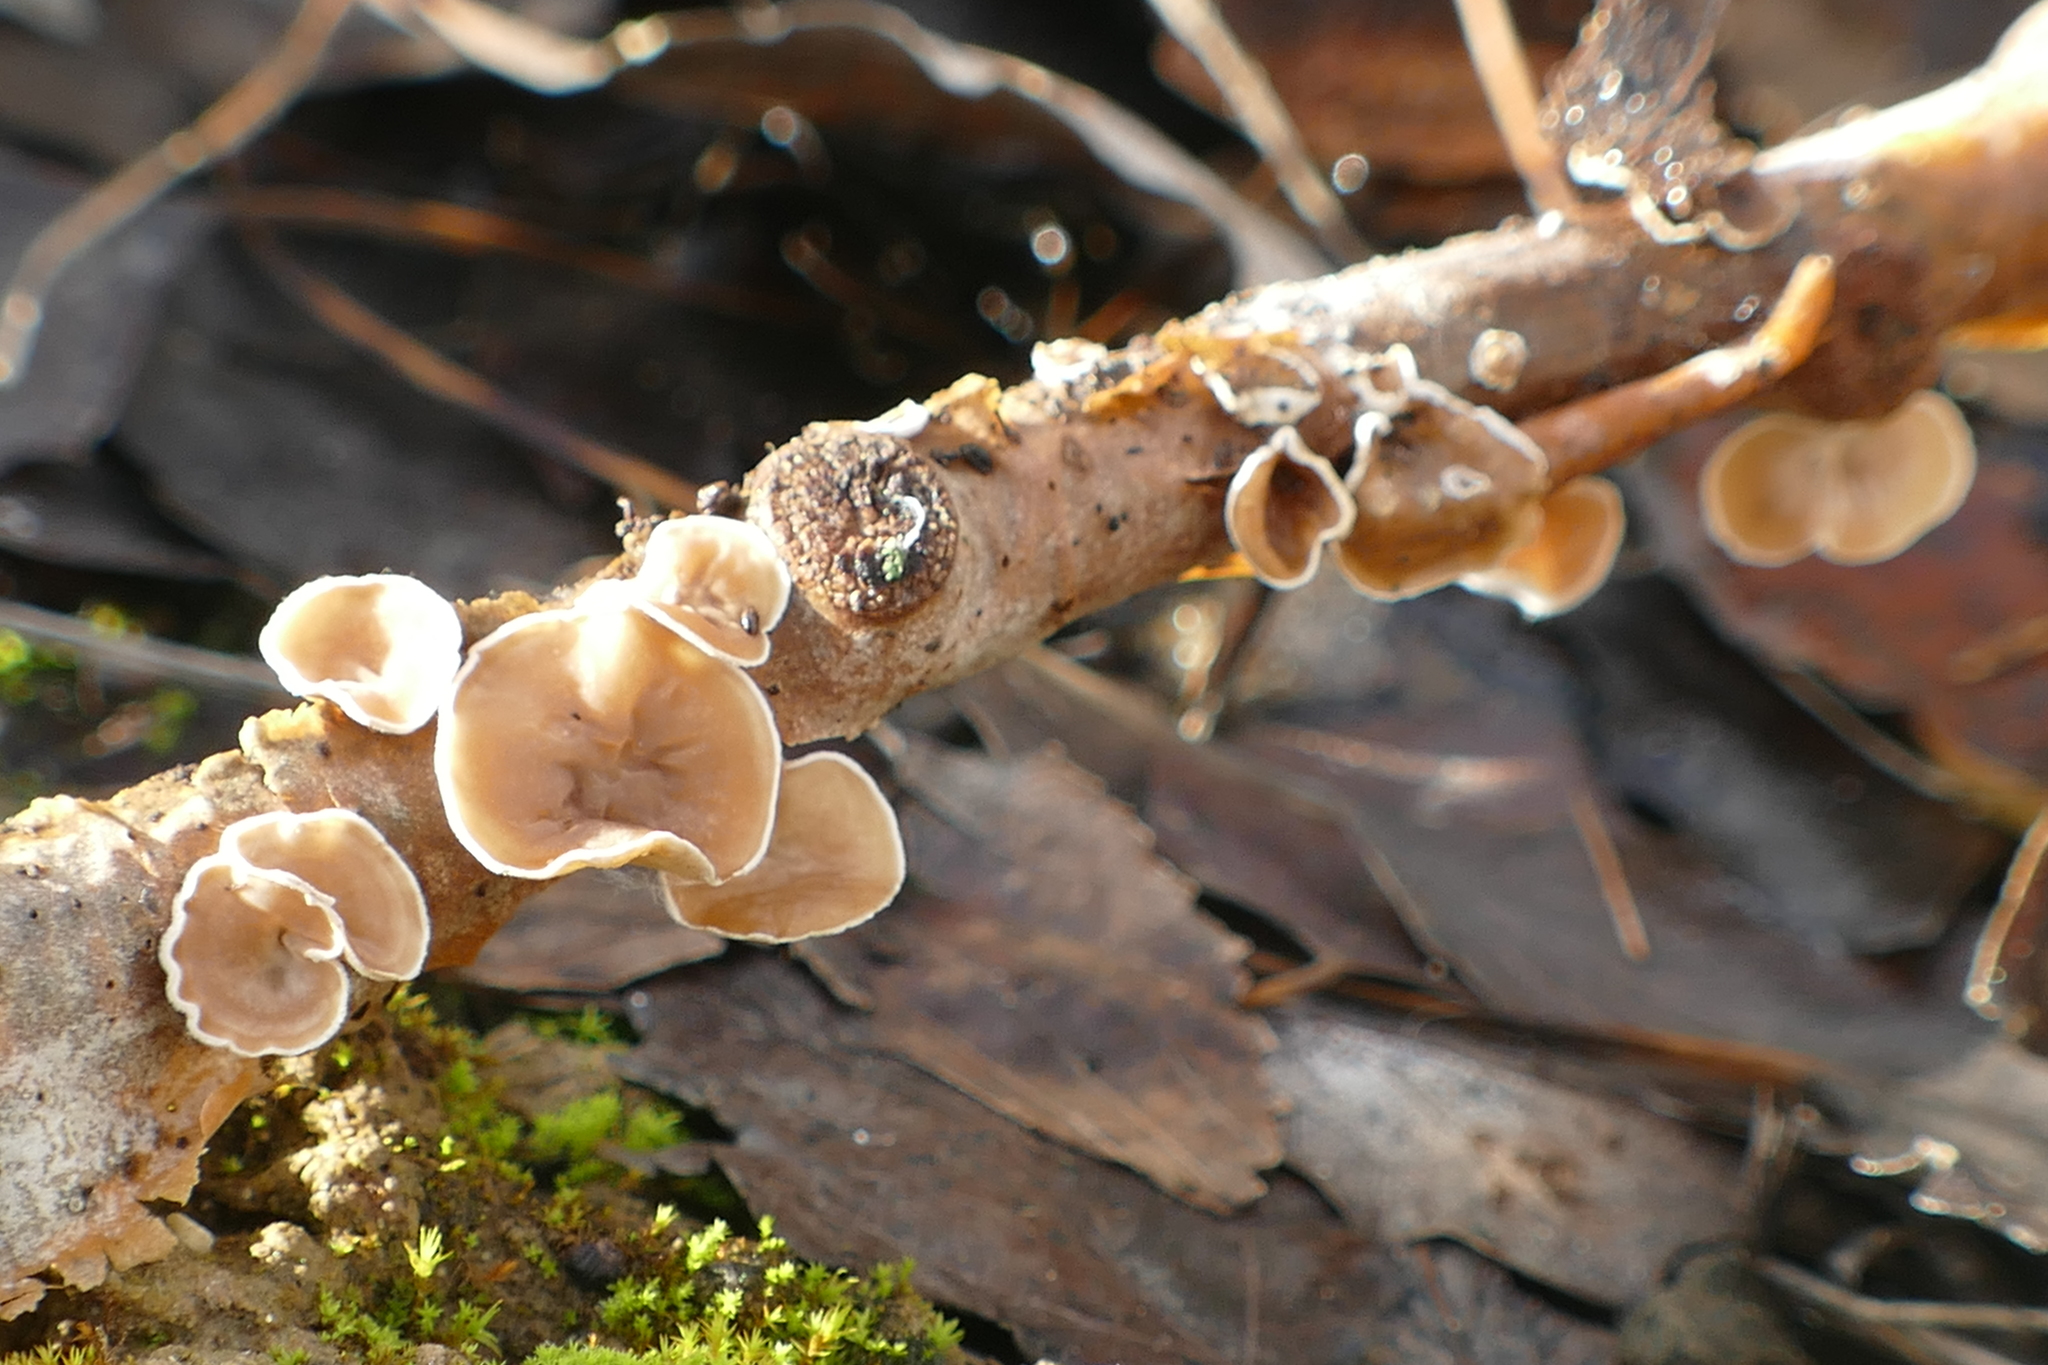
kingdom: Fungi
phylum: Basidiomycota
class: Agaricomycetes
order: Agaricales
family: Schizophyllaceae
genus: Schizophyllum
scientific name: Schizophyllum amplum
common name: Poplar bells
